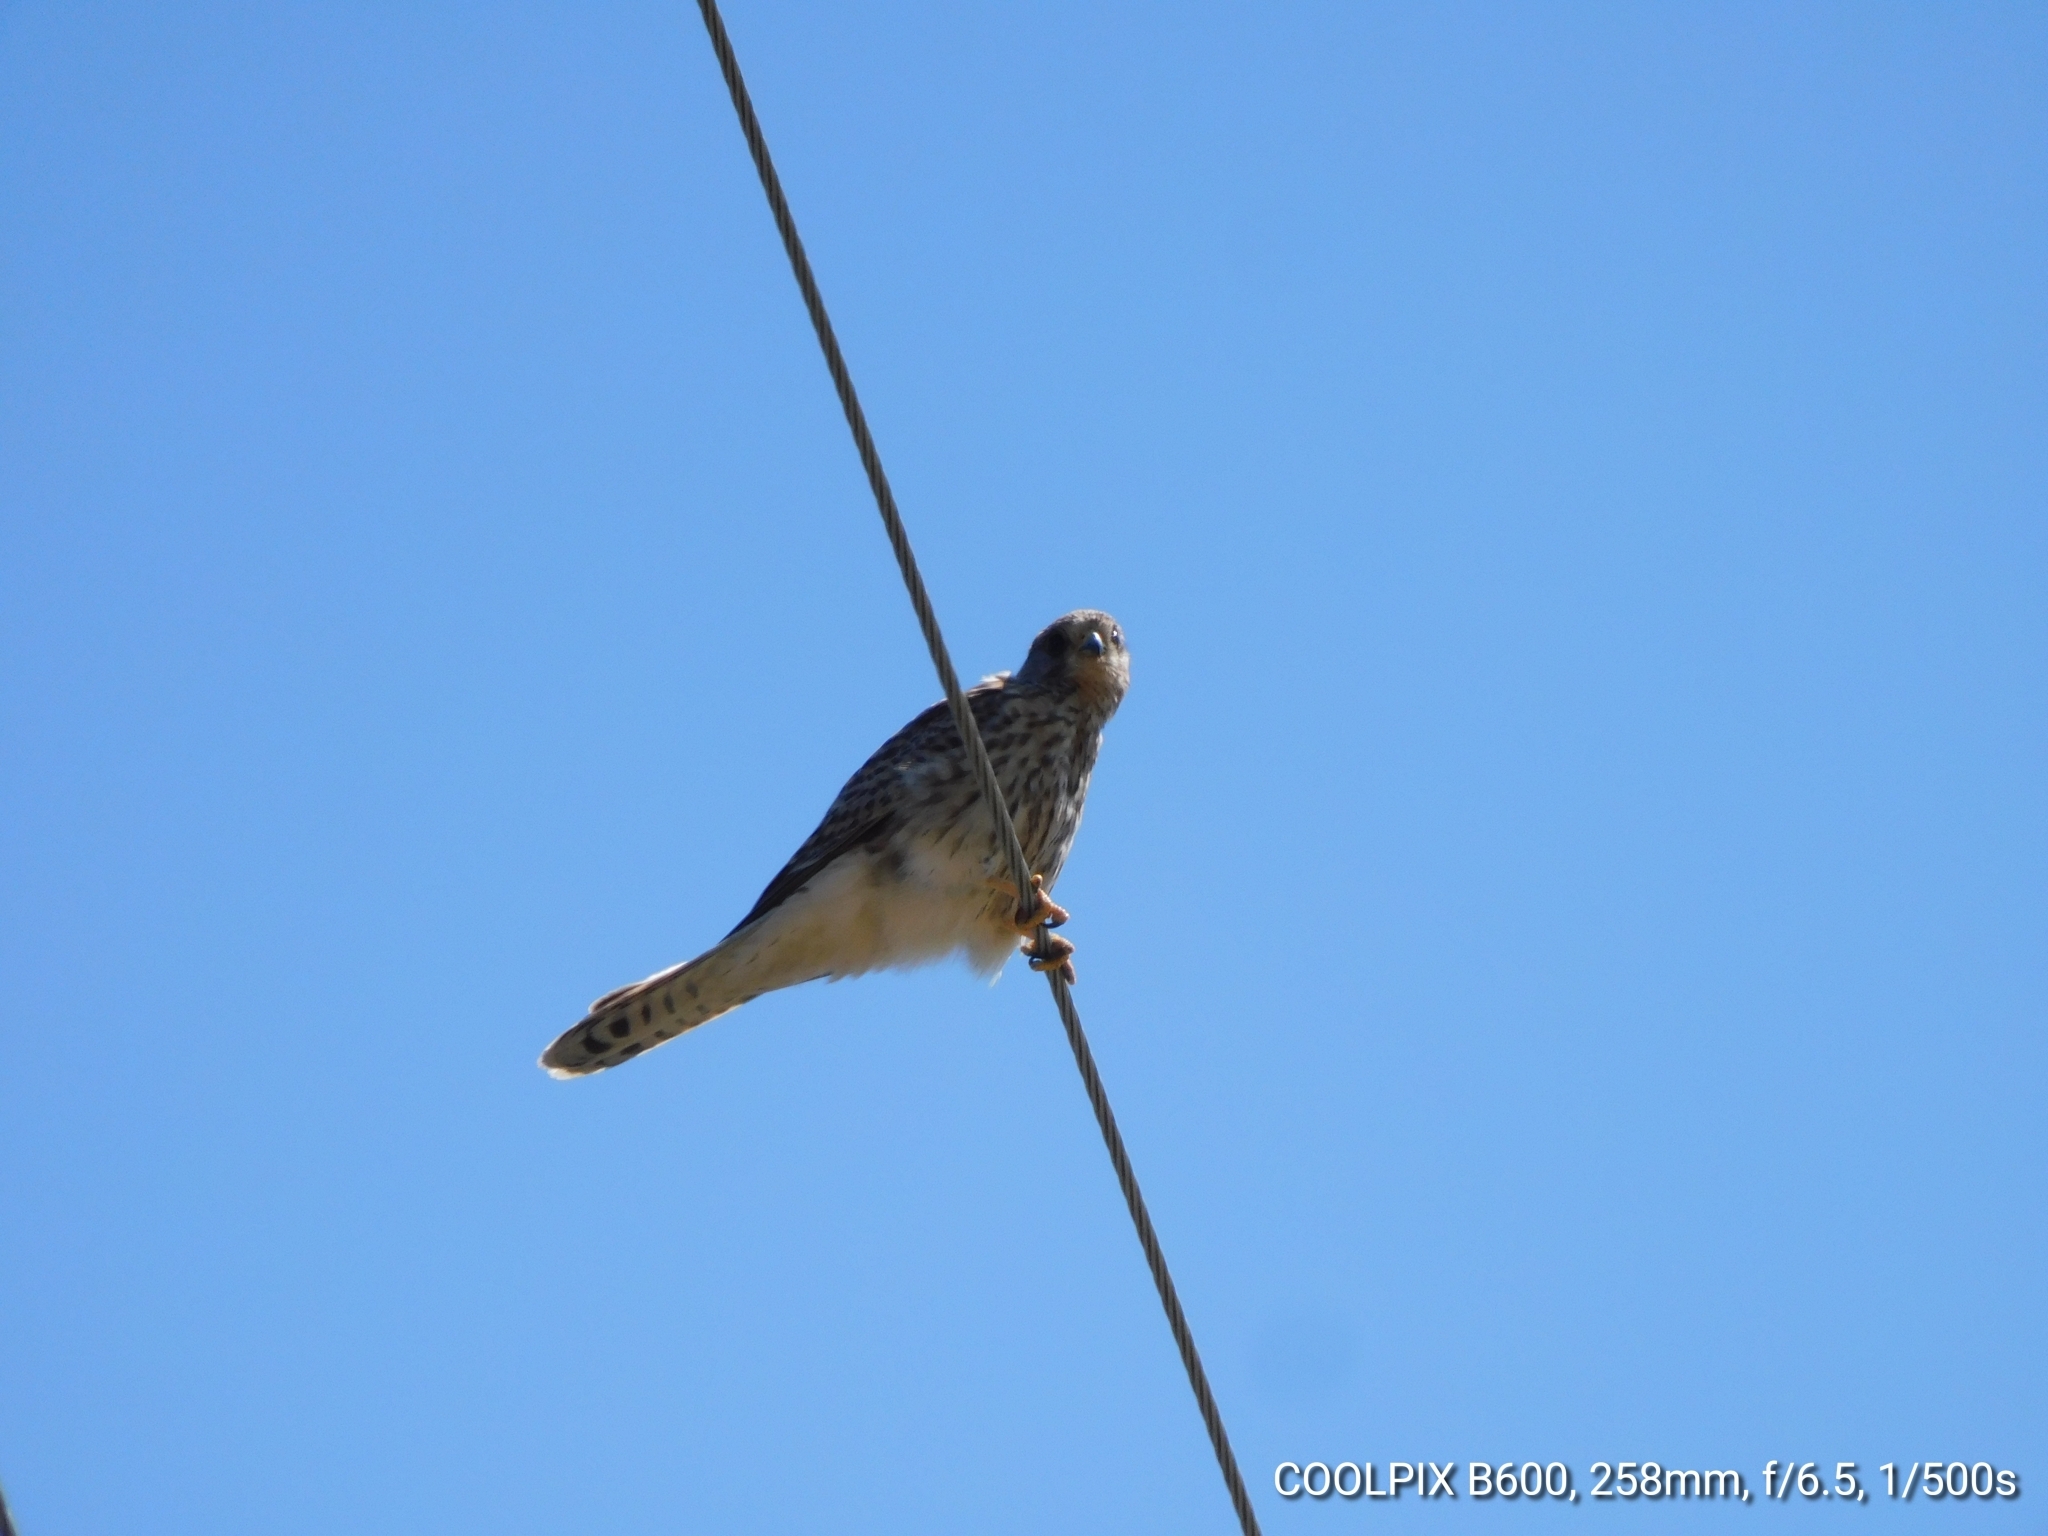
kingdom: Animalia
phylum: Chordata
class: Aves
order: Falconiformes
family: Falconidae
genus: Falco
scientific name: Falco tinnunculus
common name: Common kestrel
